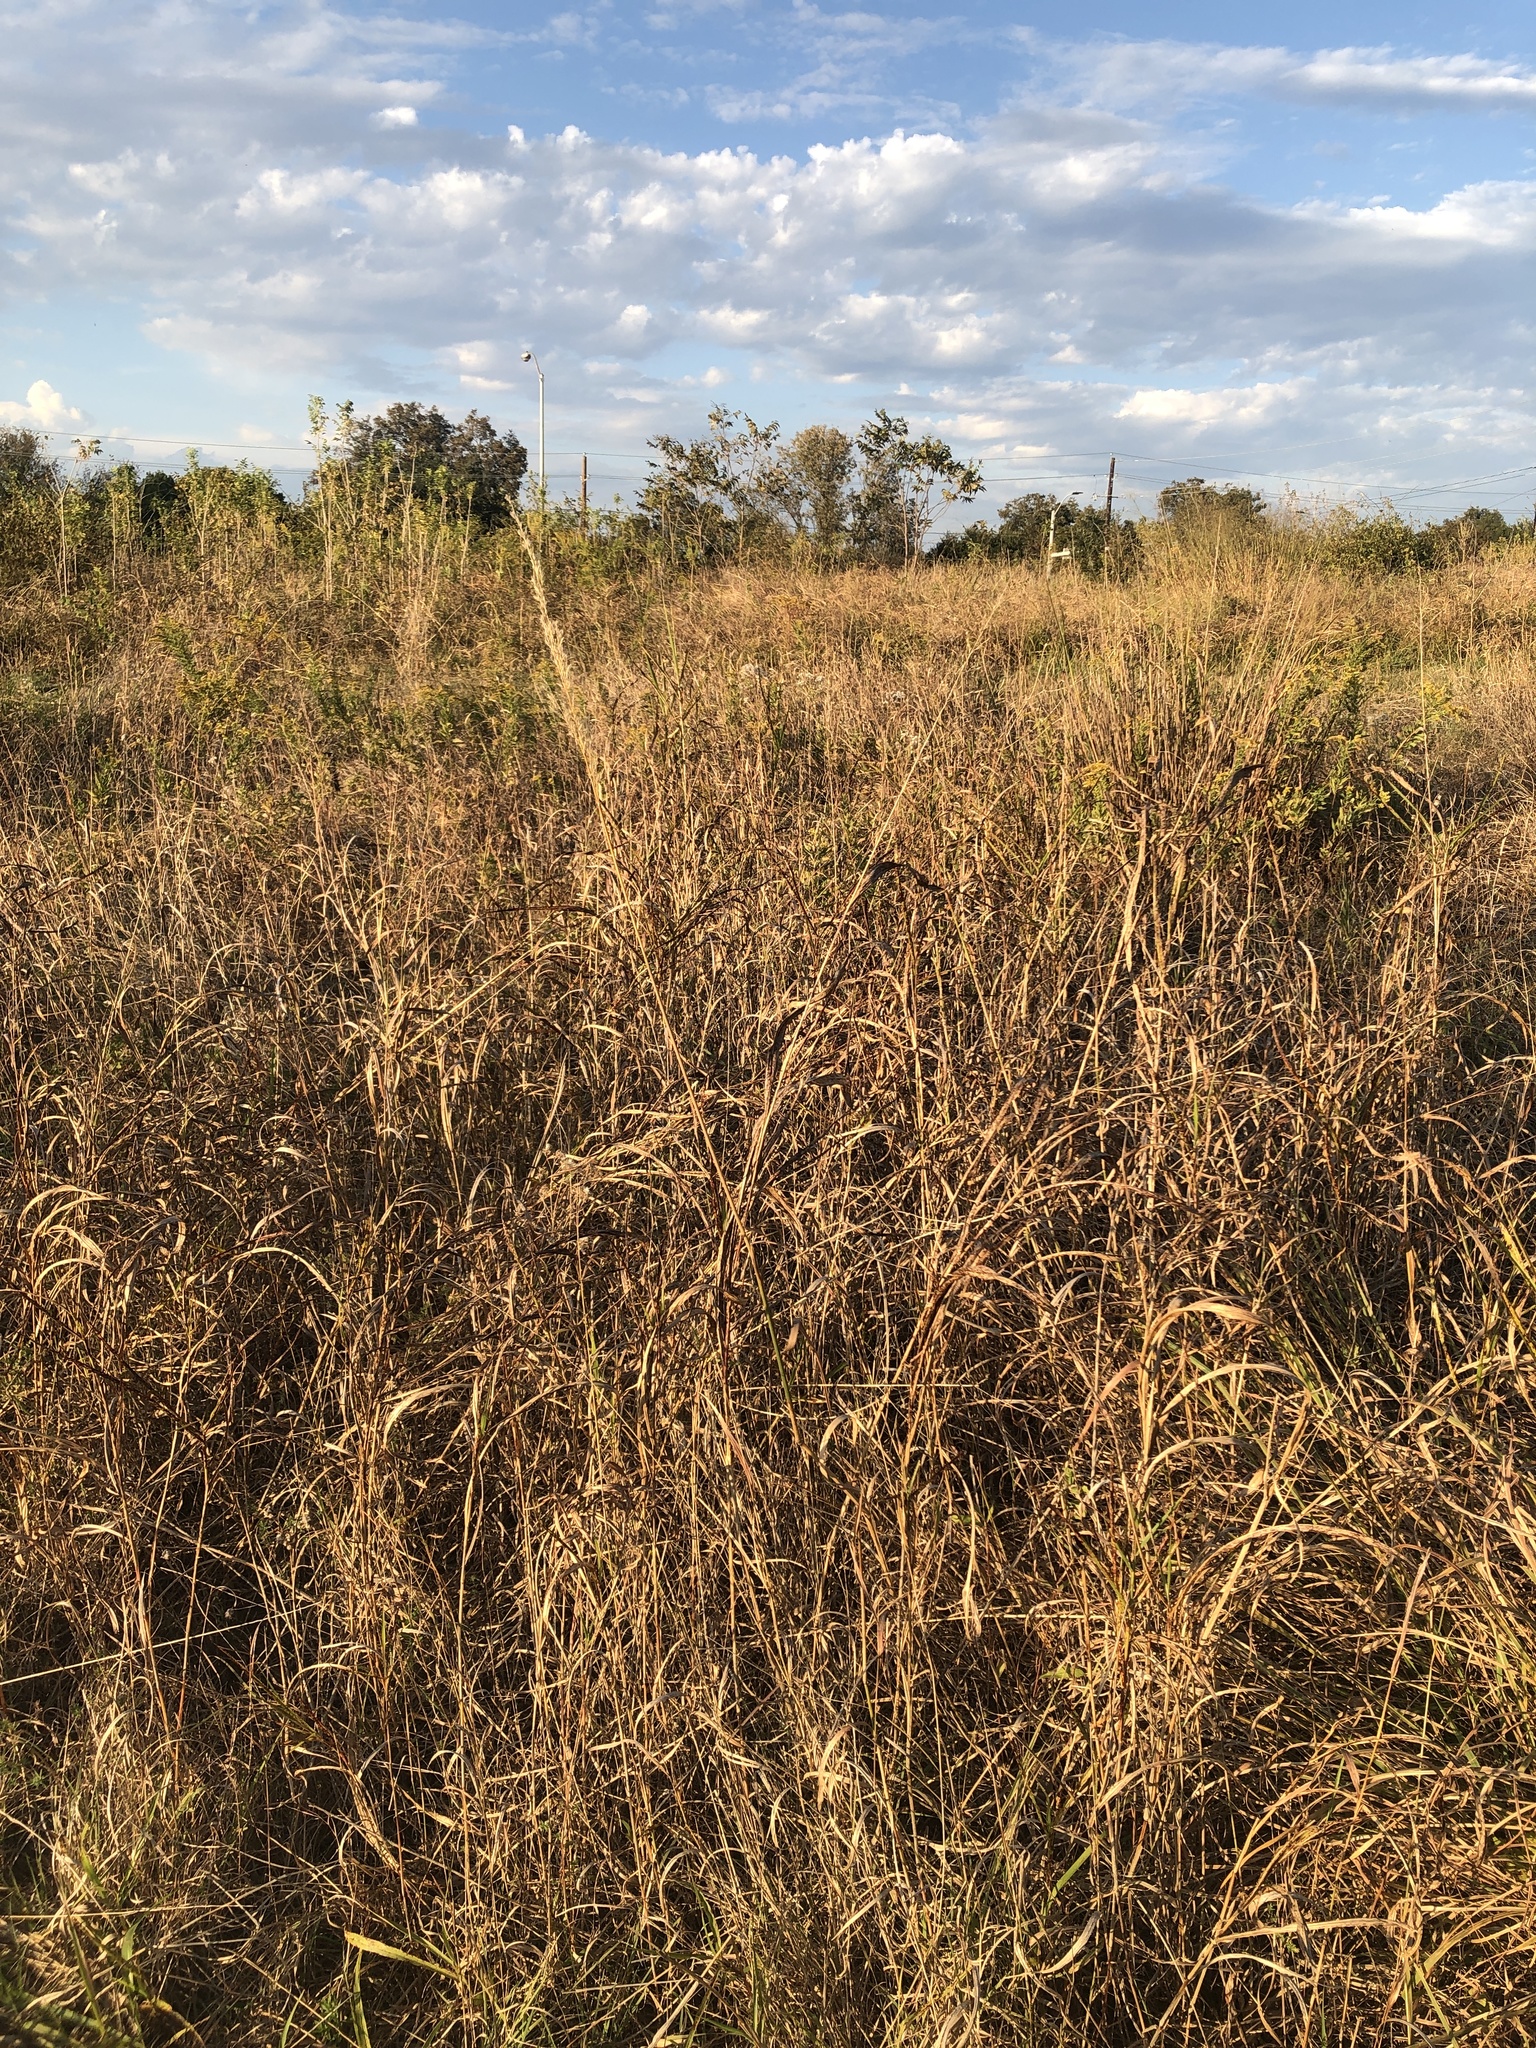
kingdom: Plantae
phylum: Tracheophyta
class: Liliopsida
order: Poales
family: Poaceae
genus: Sorghastrum
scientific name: Sorghastrum nutans
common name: Indian grass
